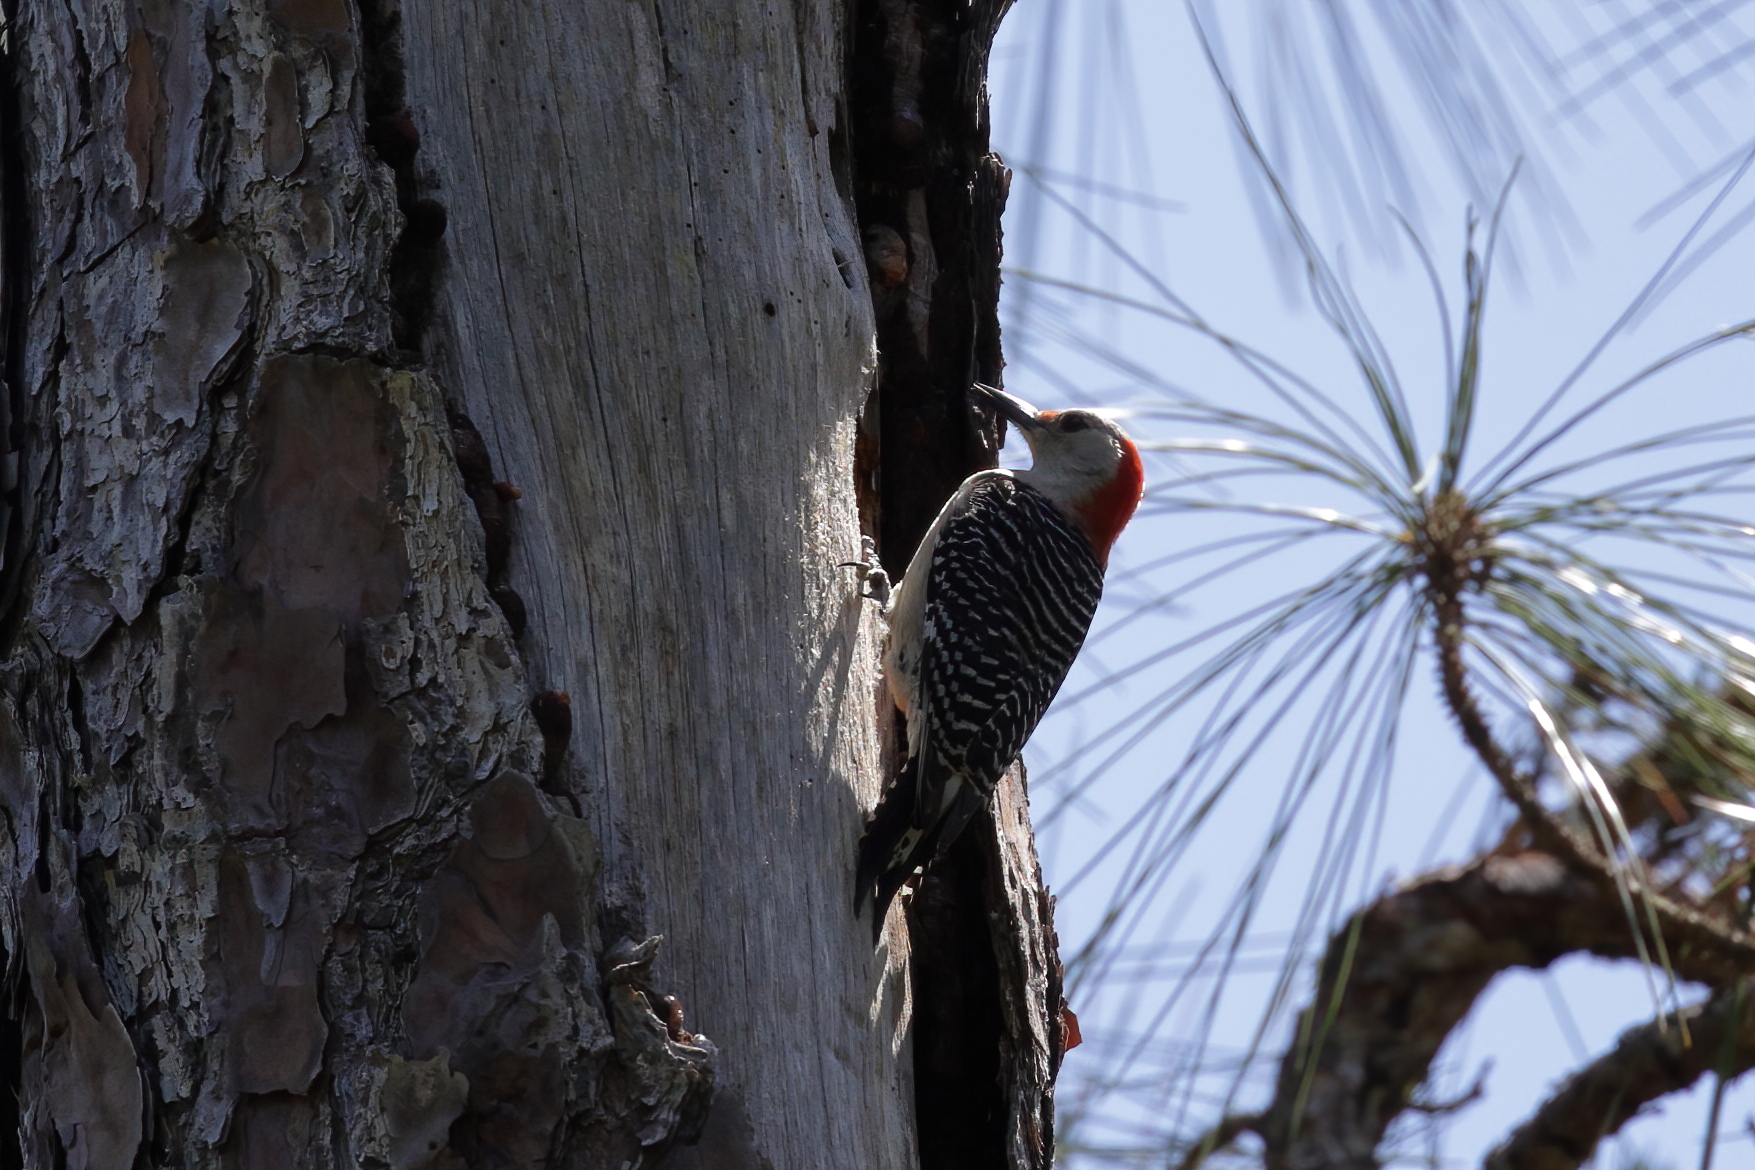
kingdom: Animalia
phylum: Chordata
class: Aves
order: Piciformes
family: Picidae
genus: Melanerpes
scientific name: Melanerpes carolinus
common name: Red-bellied woodpecker
